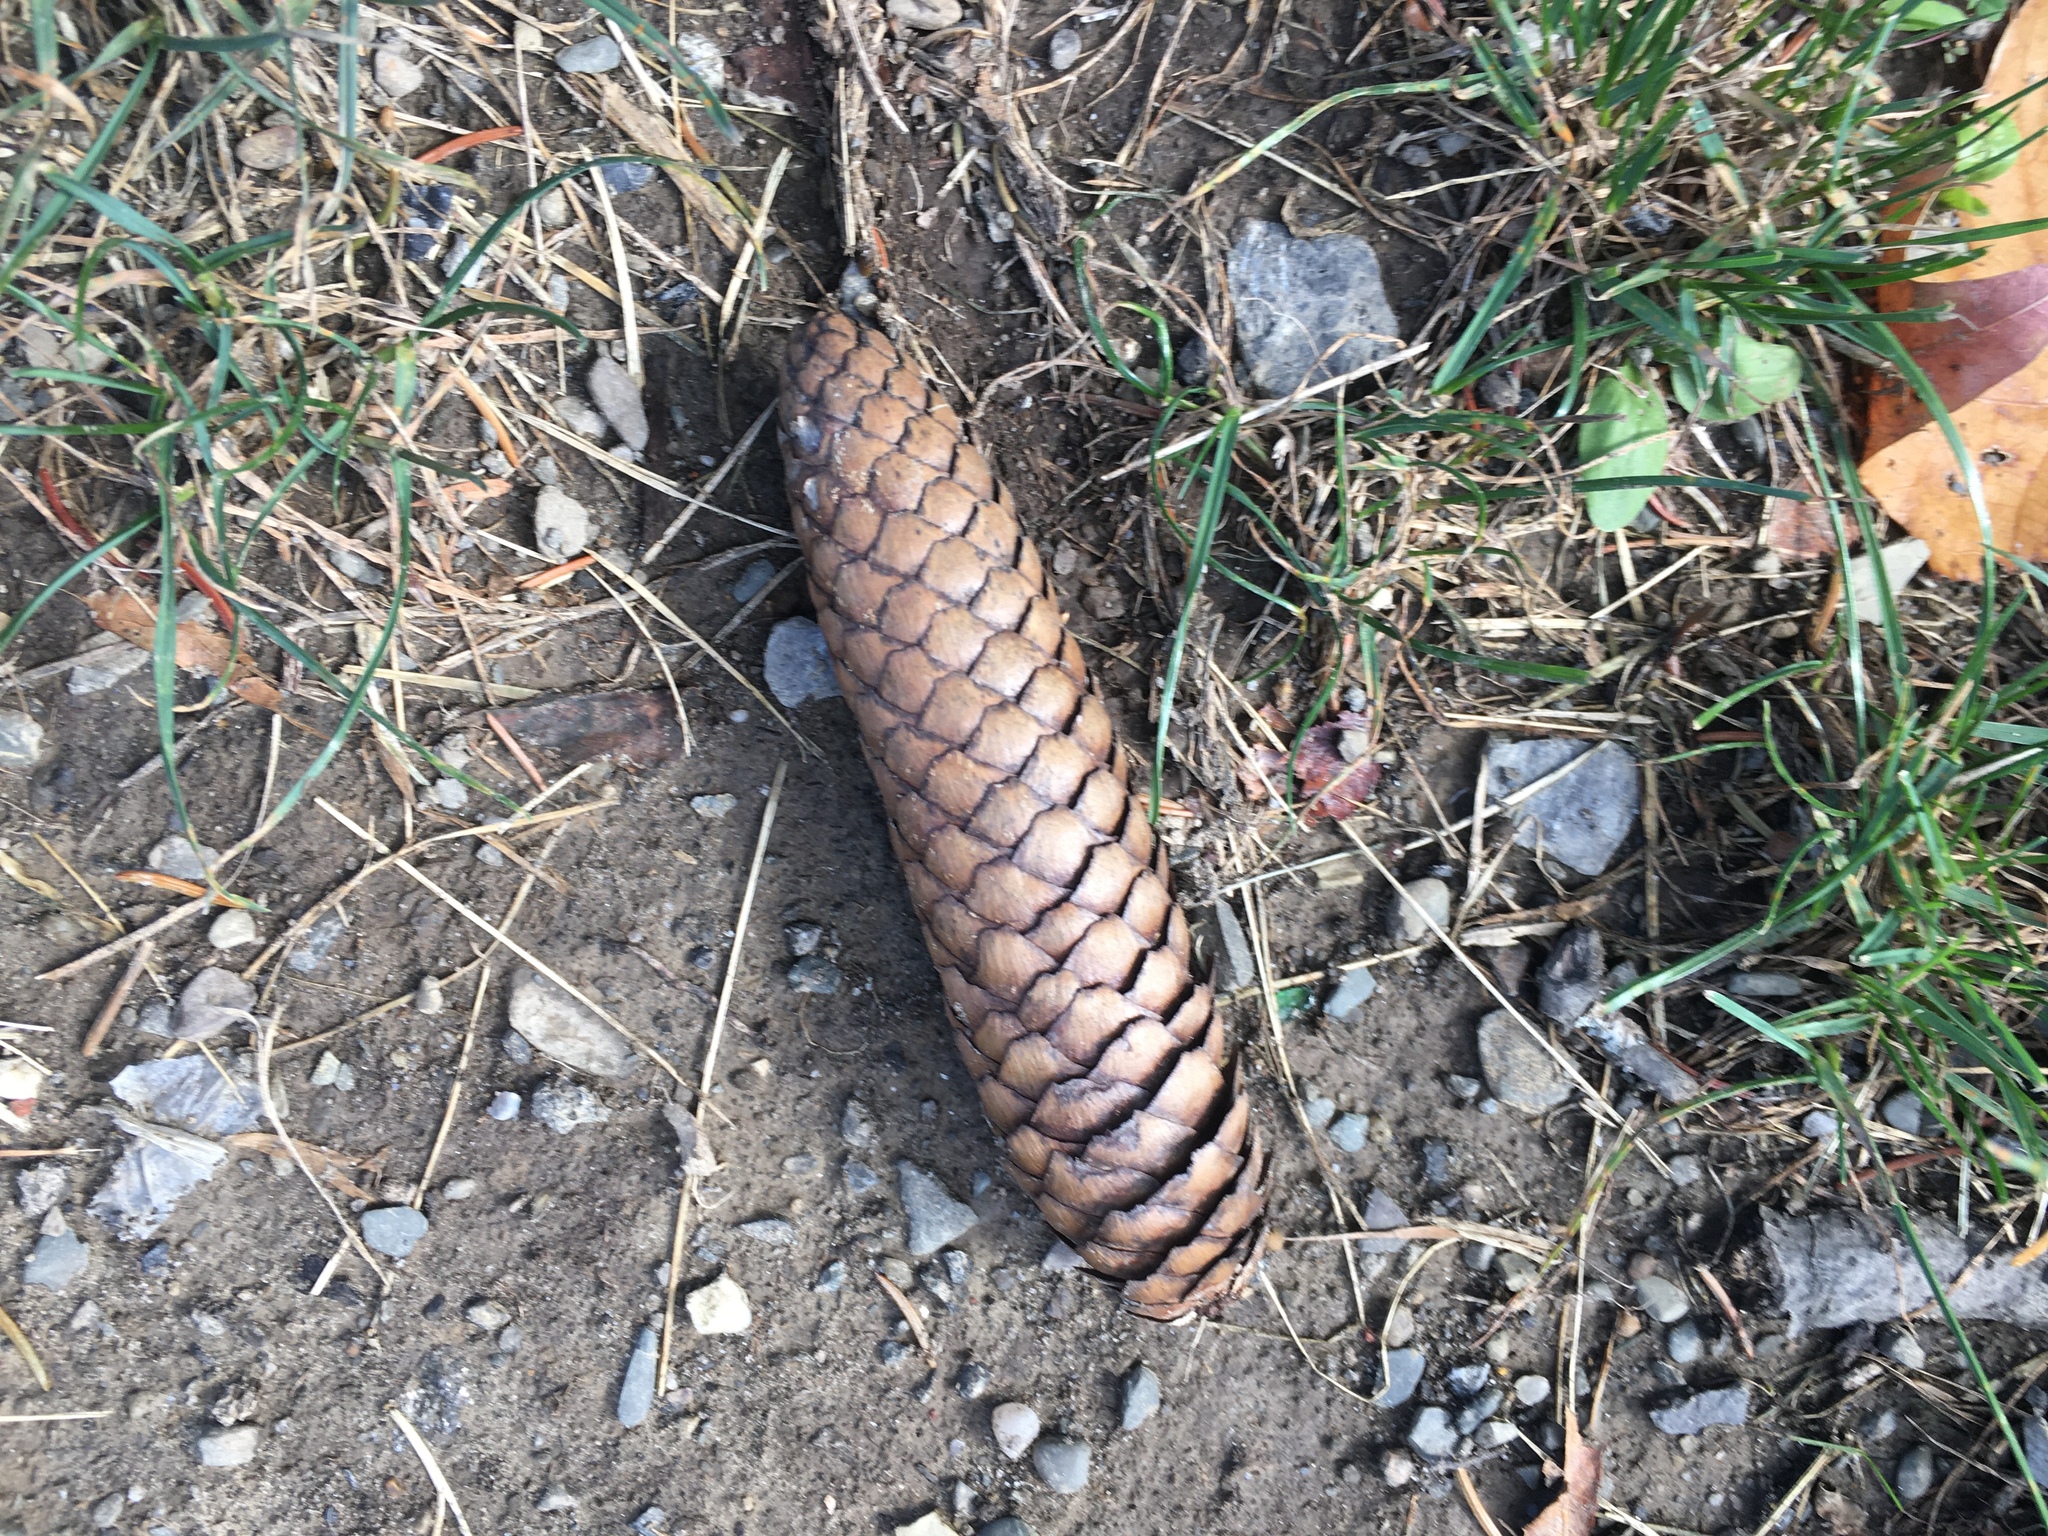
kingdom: Plantae
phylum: Tracheophyta
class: Pinopsida
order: Pinales
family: Pinaceae
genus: Picea
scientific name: Picea abies
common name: Norway spruce
